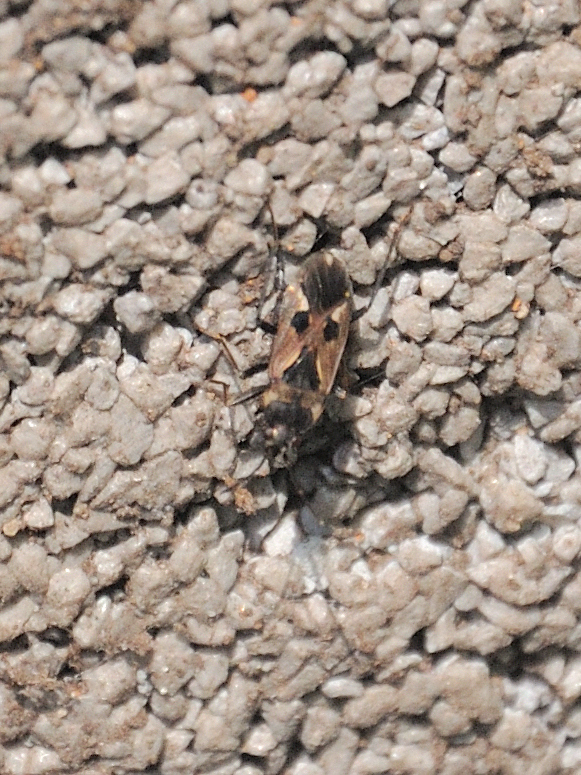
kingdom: Animalia
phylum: Arthropoda
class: Insecta
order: Hemiptera
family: Rhyparochromidae
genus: Rhyparochromus
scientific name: Rhyparochromus vulgaris
